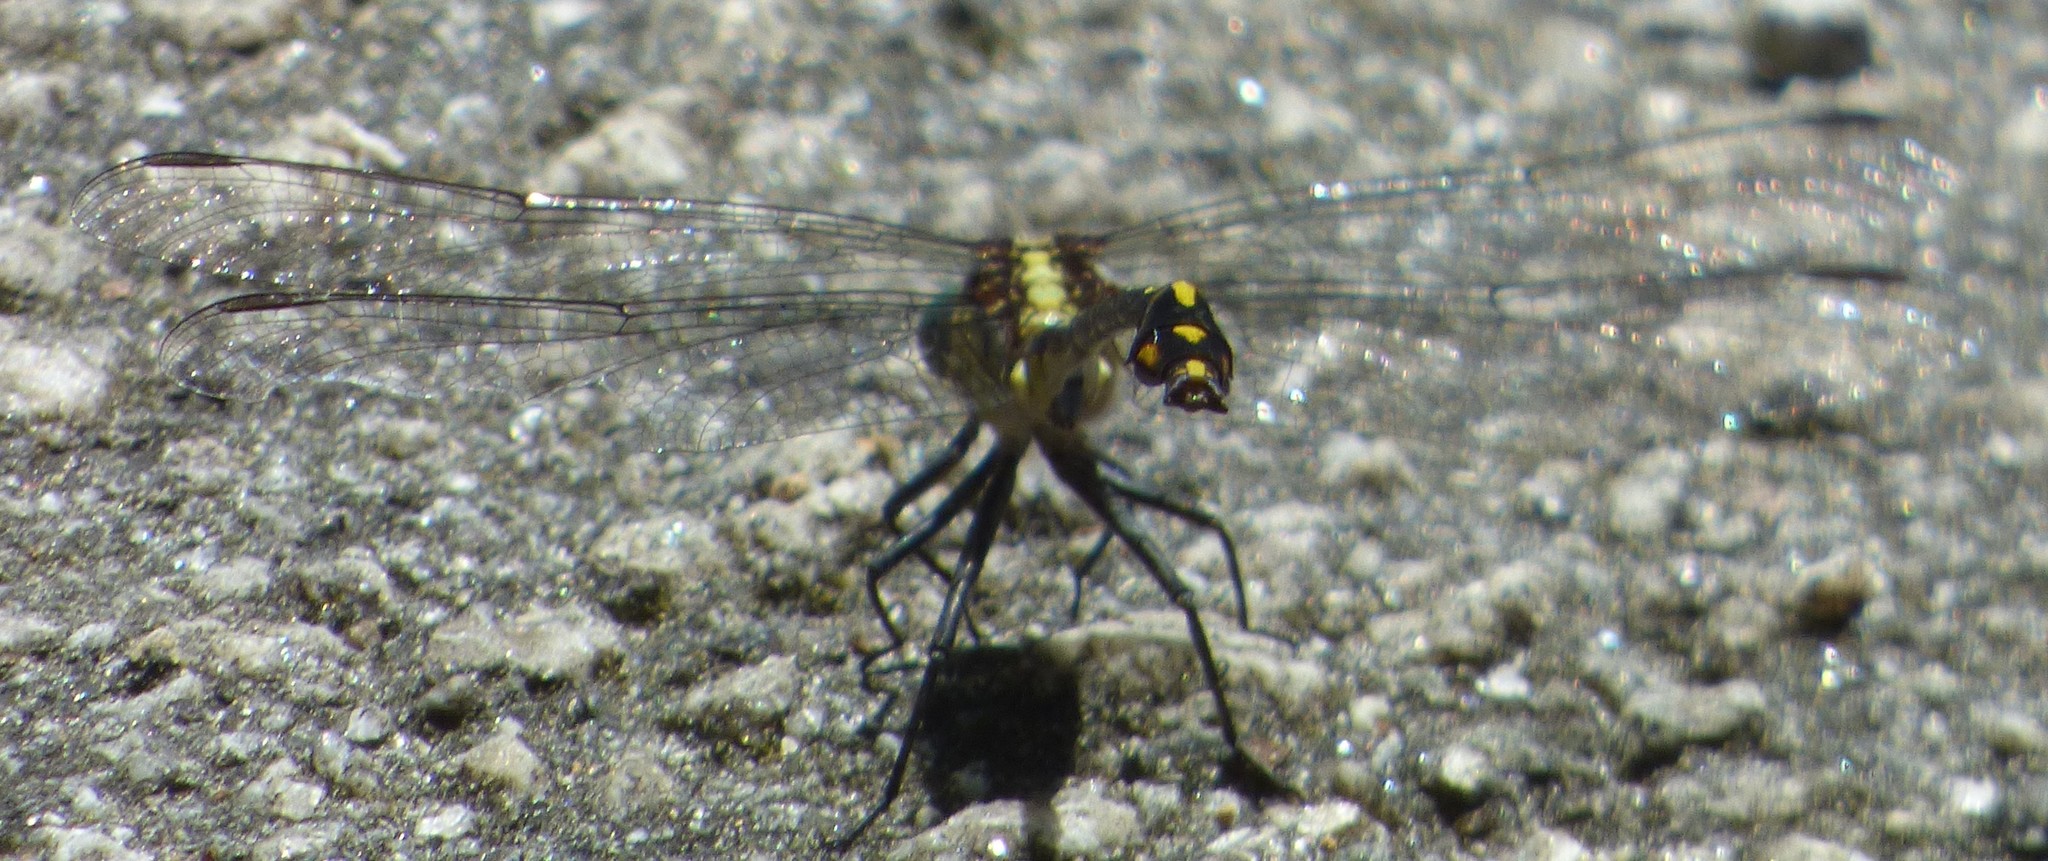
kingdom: Animalia
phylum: Arthropoda
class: Insecta
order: Odonata
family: Gomphidae
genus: Dromogomphus
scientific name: Dromogomphus spinosus
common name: Black-shouldered spinyleg
